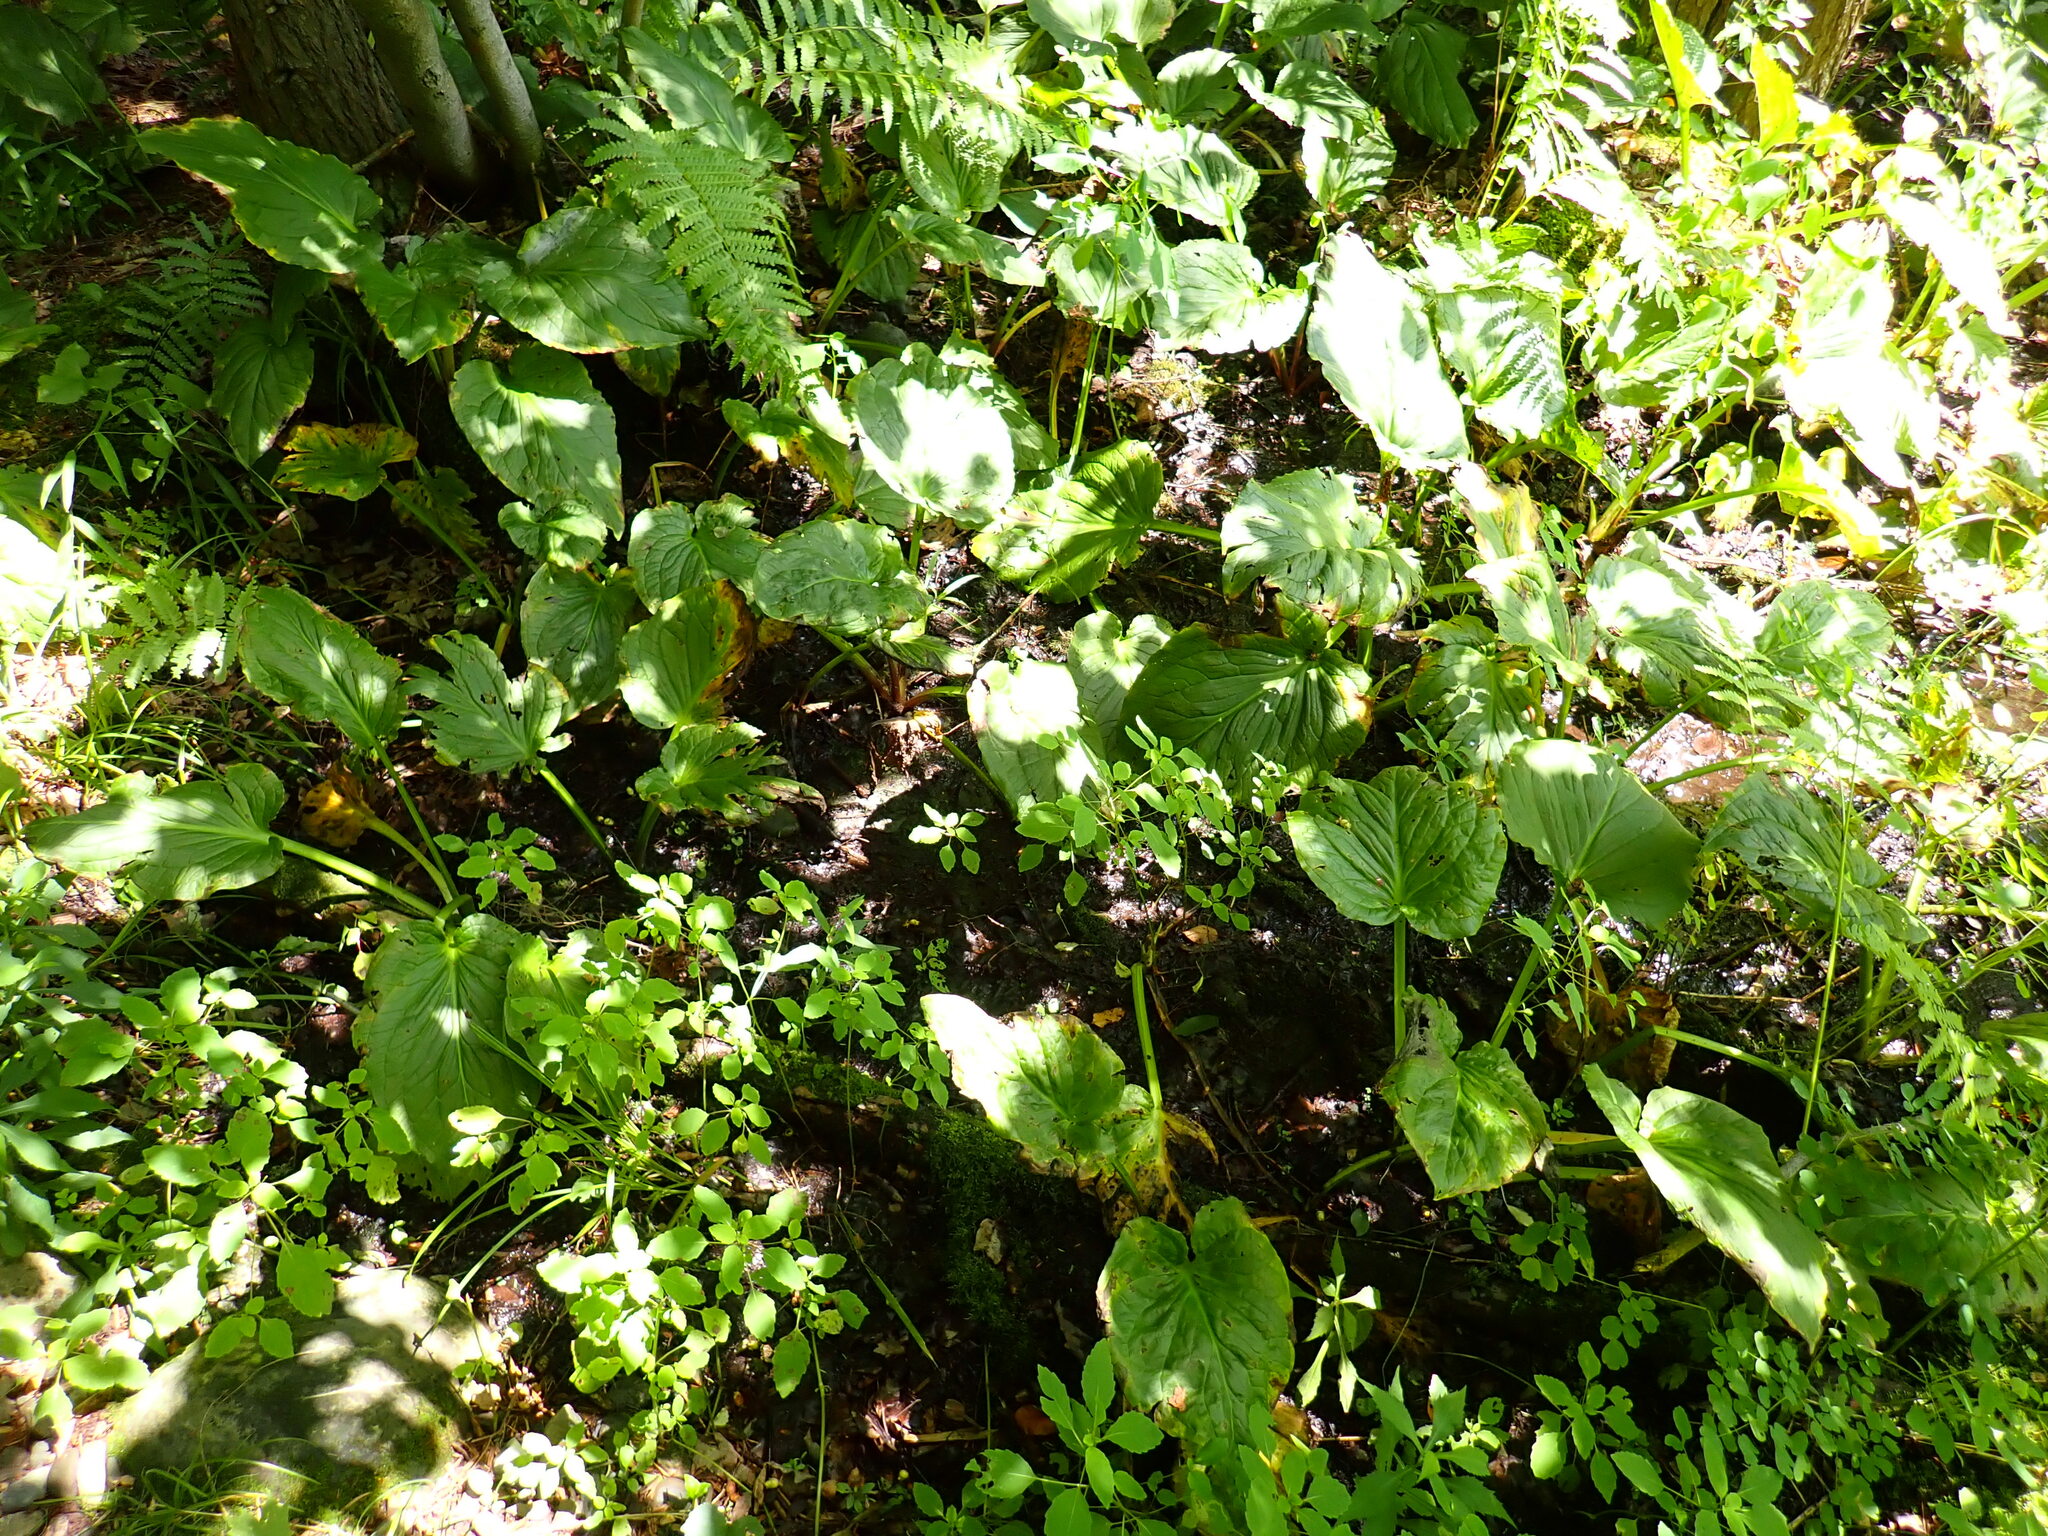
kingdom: Plantae
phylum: Tracheophyta
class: Liliopsida
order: Alismatales
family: Araceae
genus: Symplocarpus
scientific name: Symplocarpus foetidus
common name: Eastern skunk cabbage
